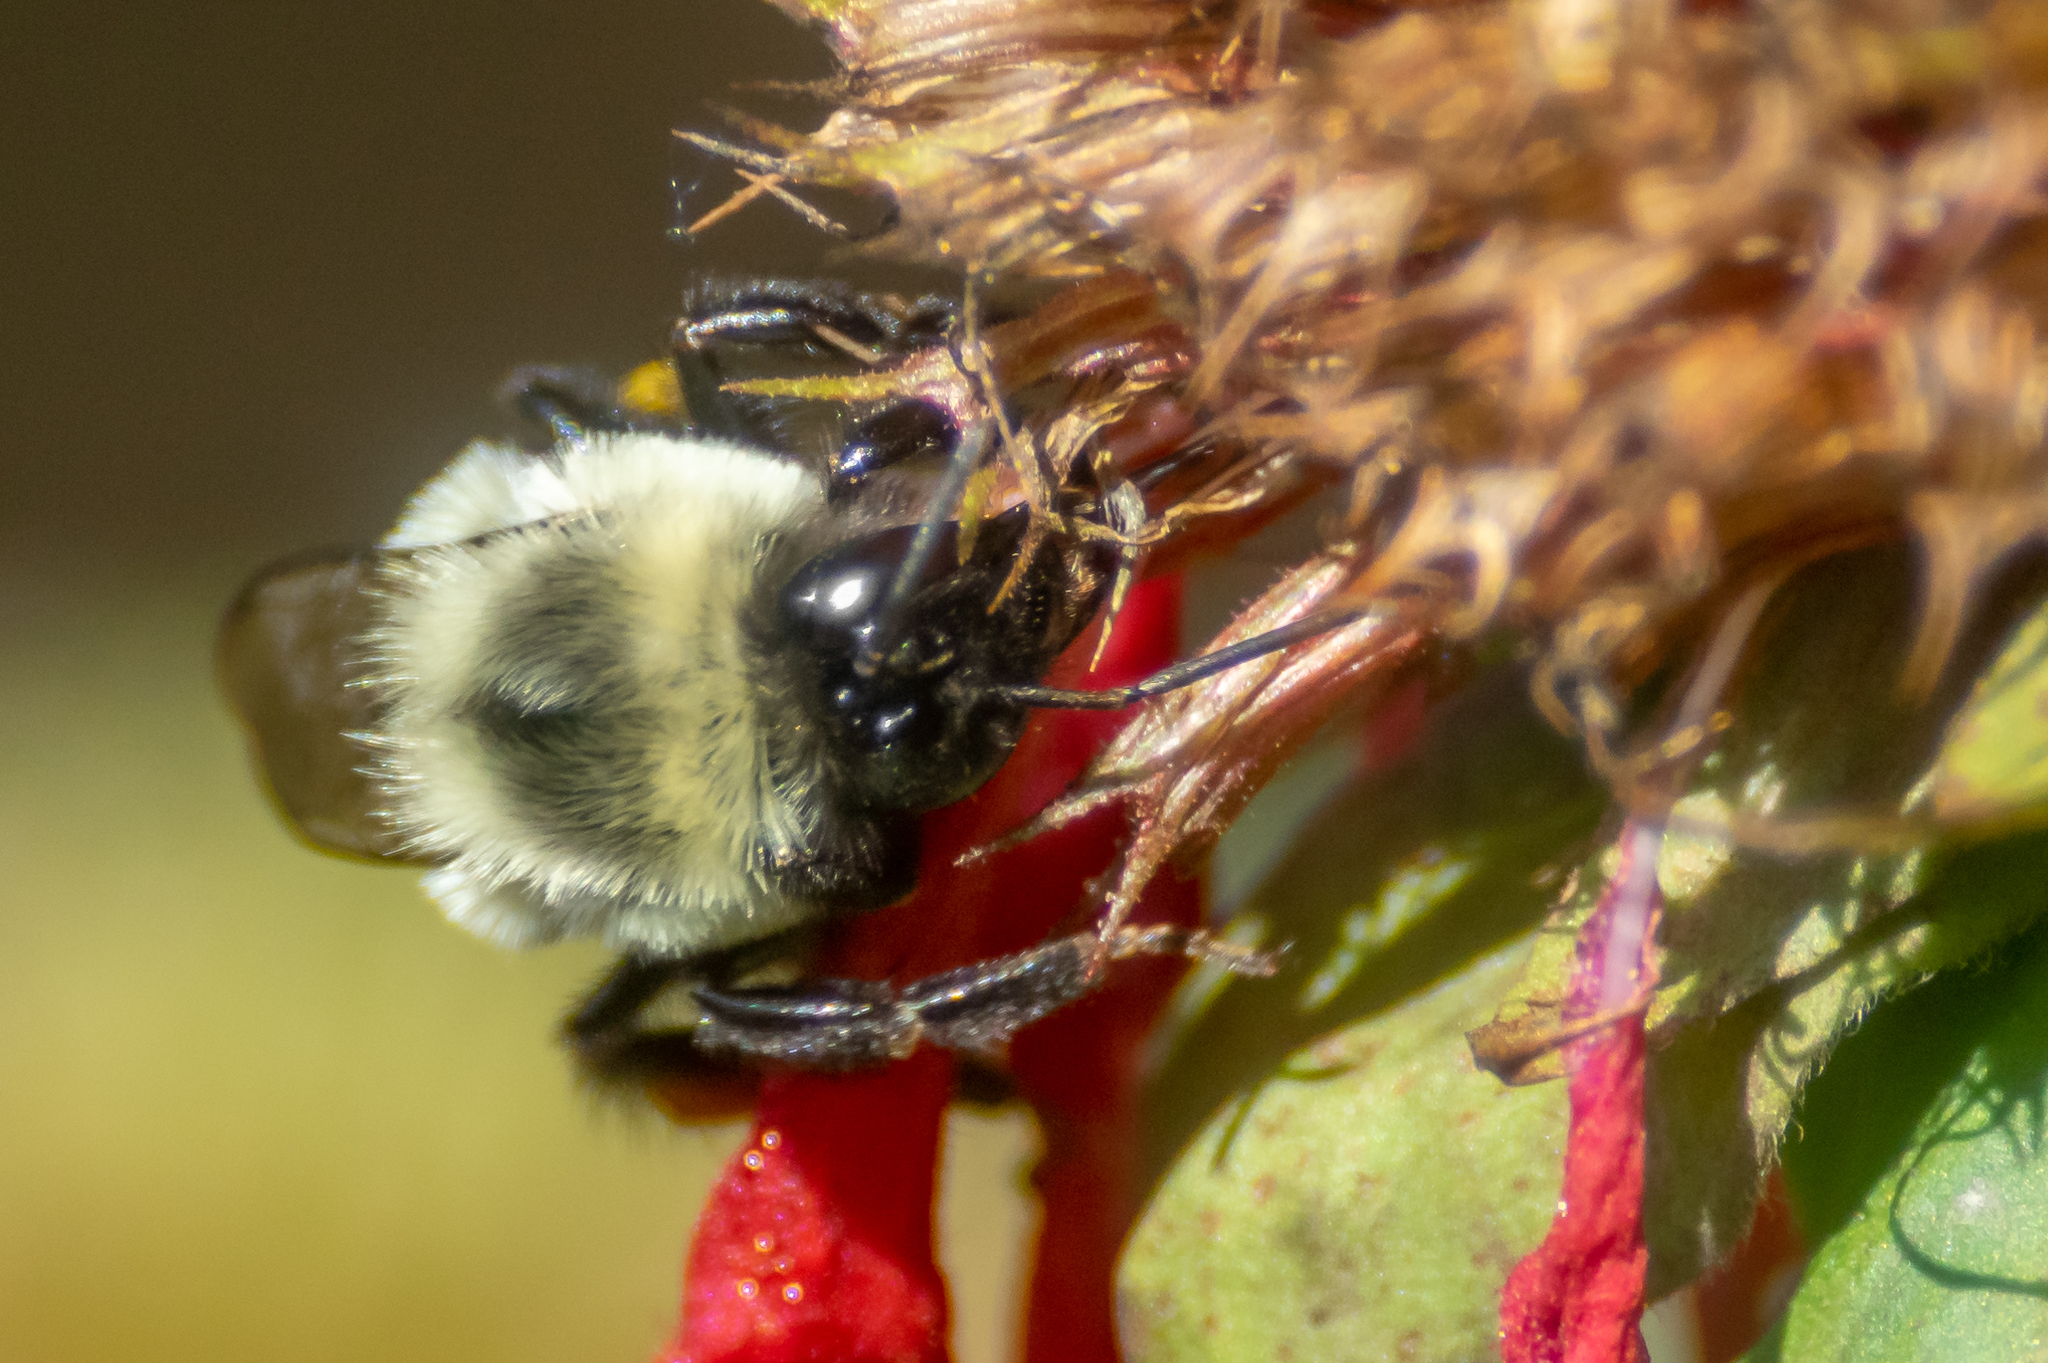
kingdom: Animalia
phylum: Arthropoda
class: Insecta
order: Hymenoptera
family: Apidae
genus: Bombus
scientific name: Bombus impatiens
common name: Common eastern bumble bee
